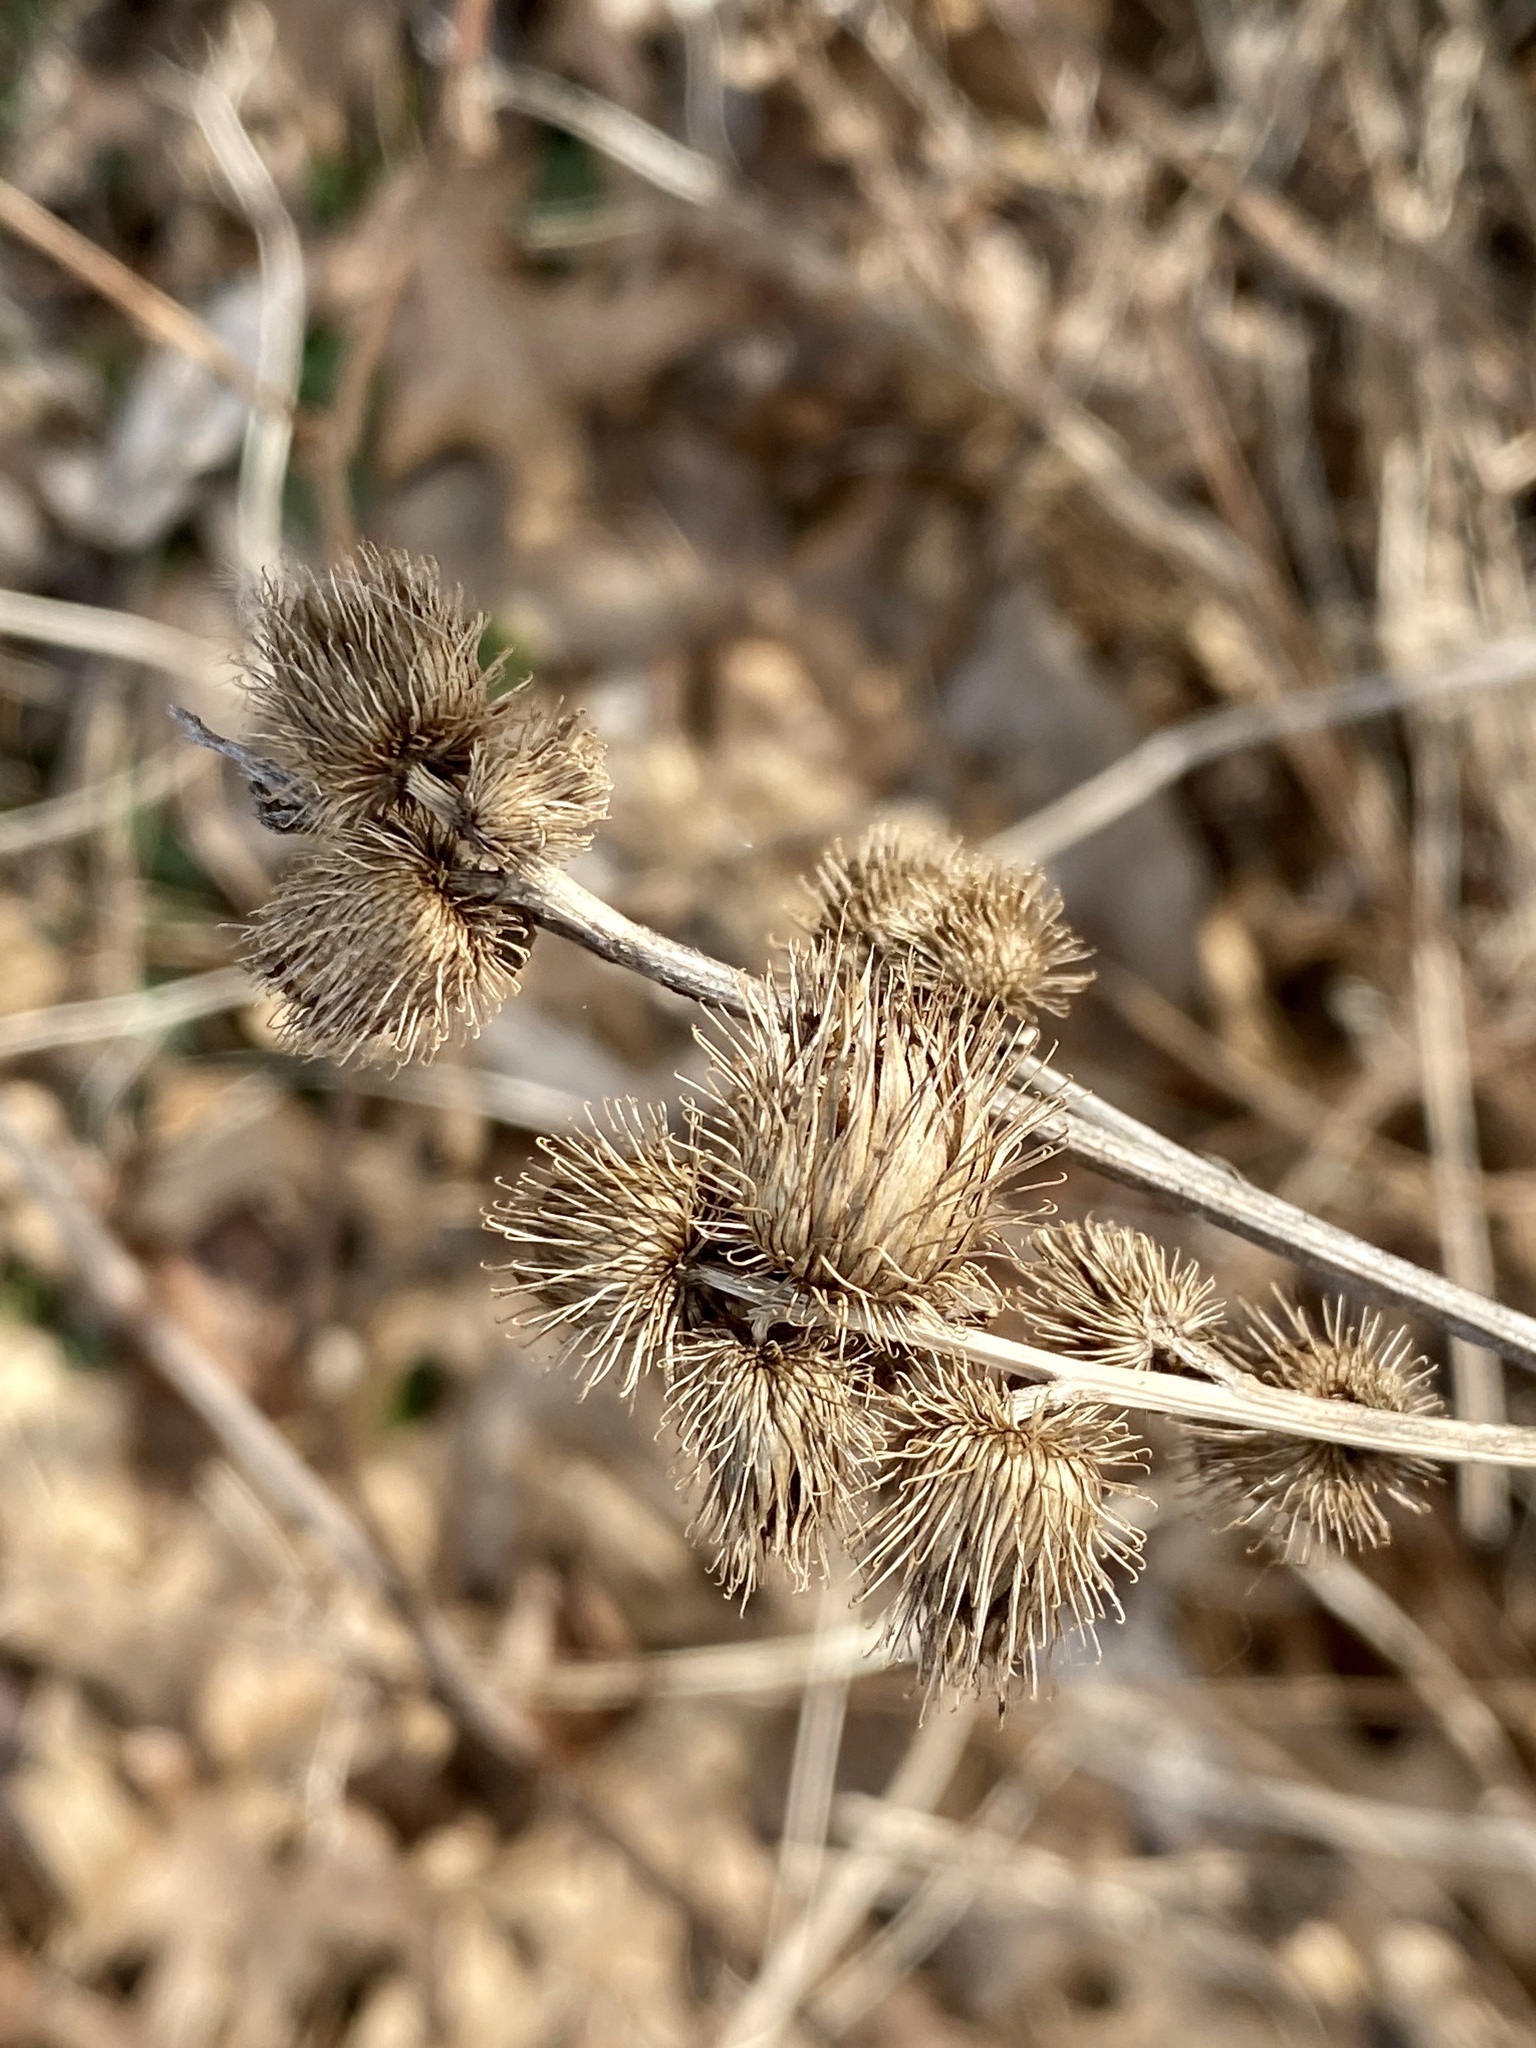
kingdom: Plantae
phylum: Tracheophyta
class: Magnoliopsida
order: Asterales
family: Asteraceae
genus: Arctium
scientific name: Arctium minus
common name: Lesser burdock
